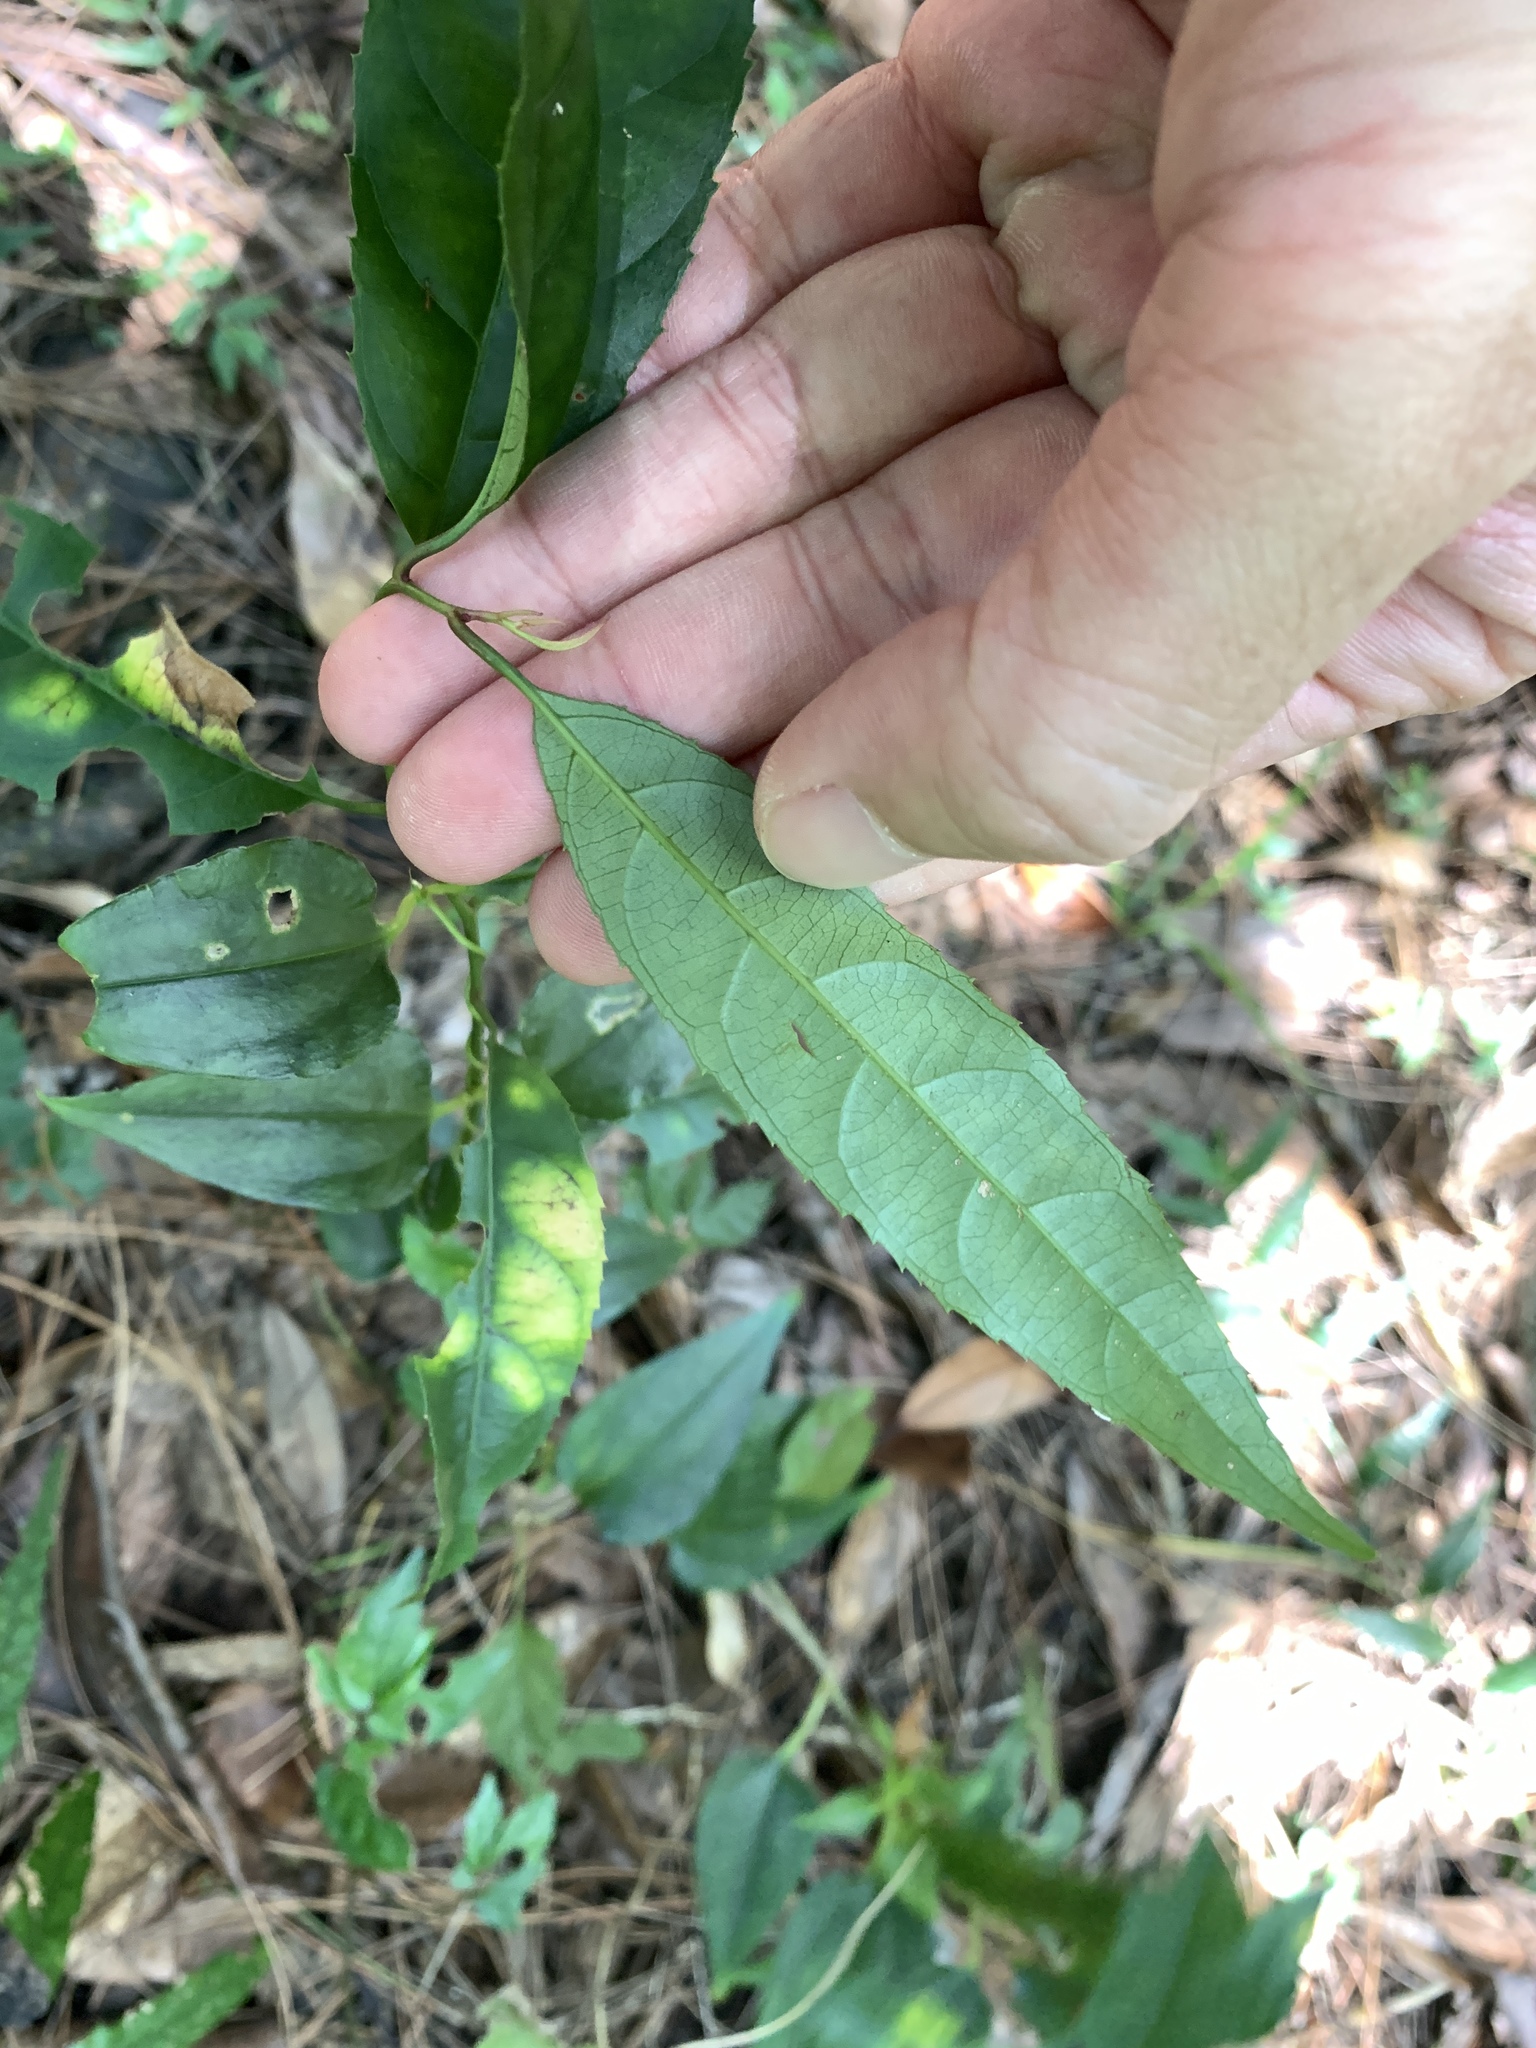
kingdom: Plantae
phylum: Tracheophyta
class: Magnoliopsida
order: Saxifragales
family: Iteaceae
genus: Itea
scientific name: Itea parviflora
